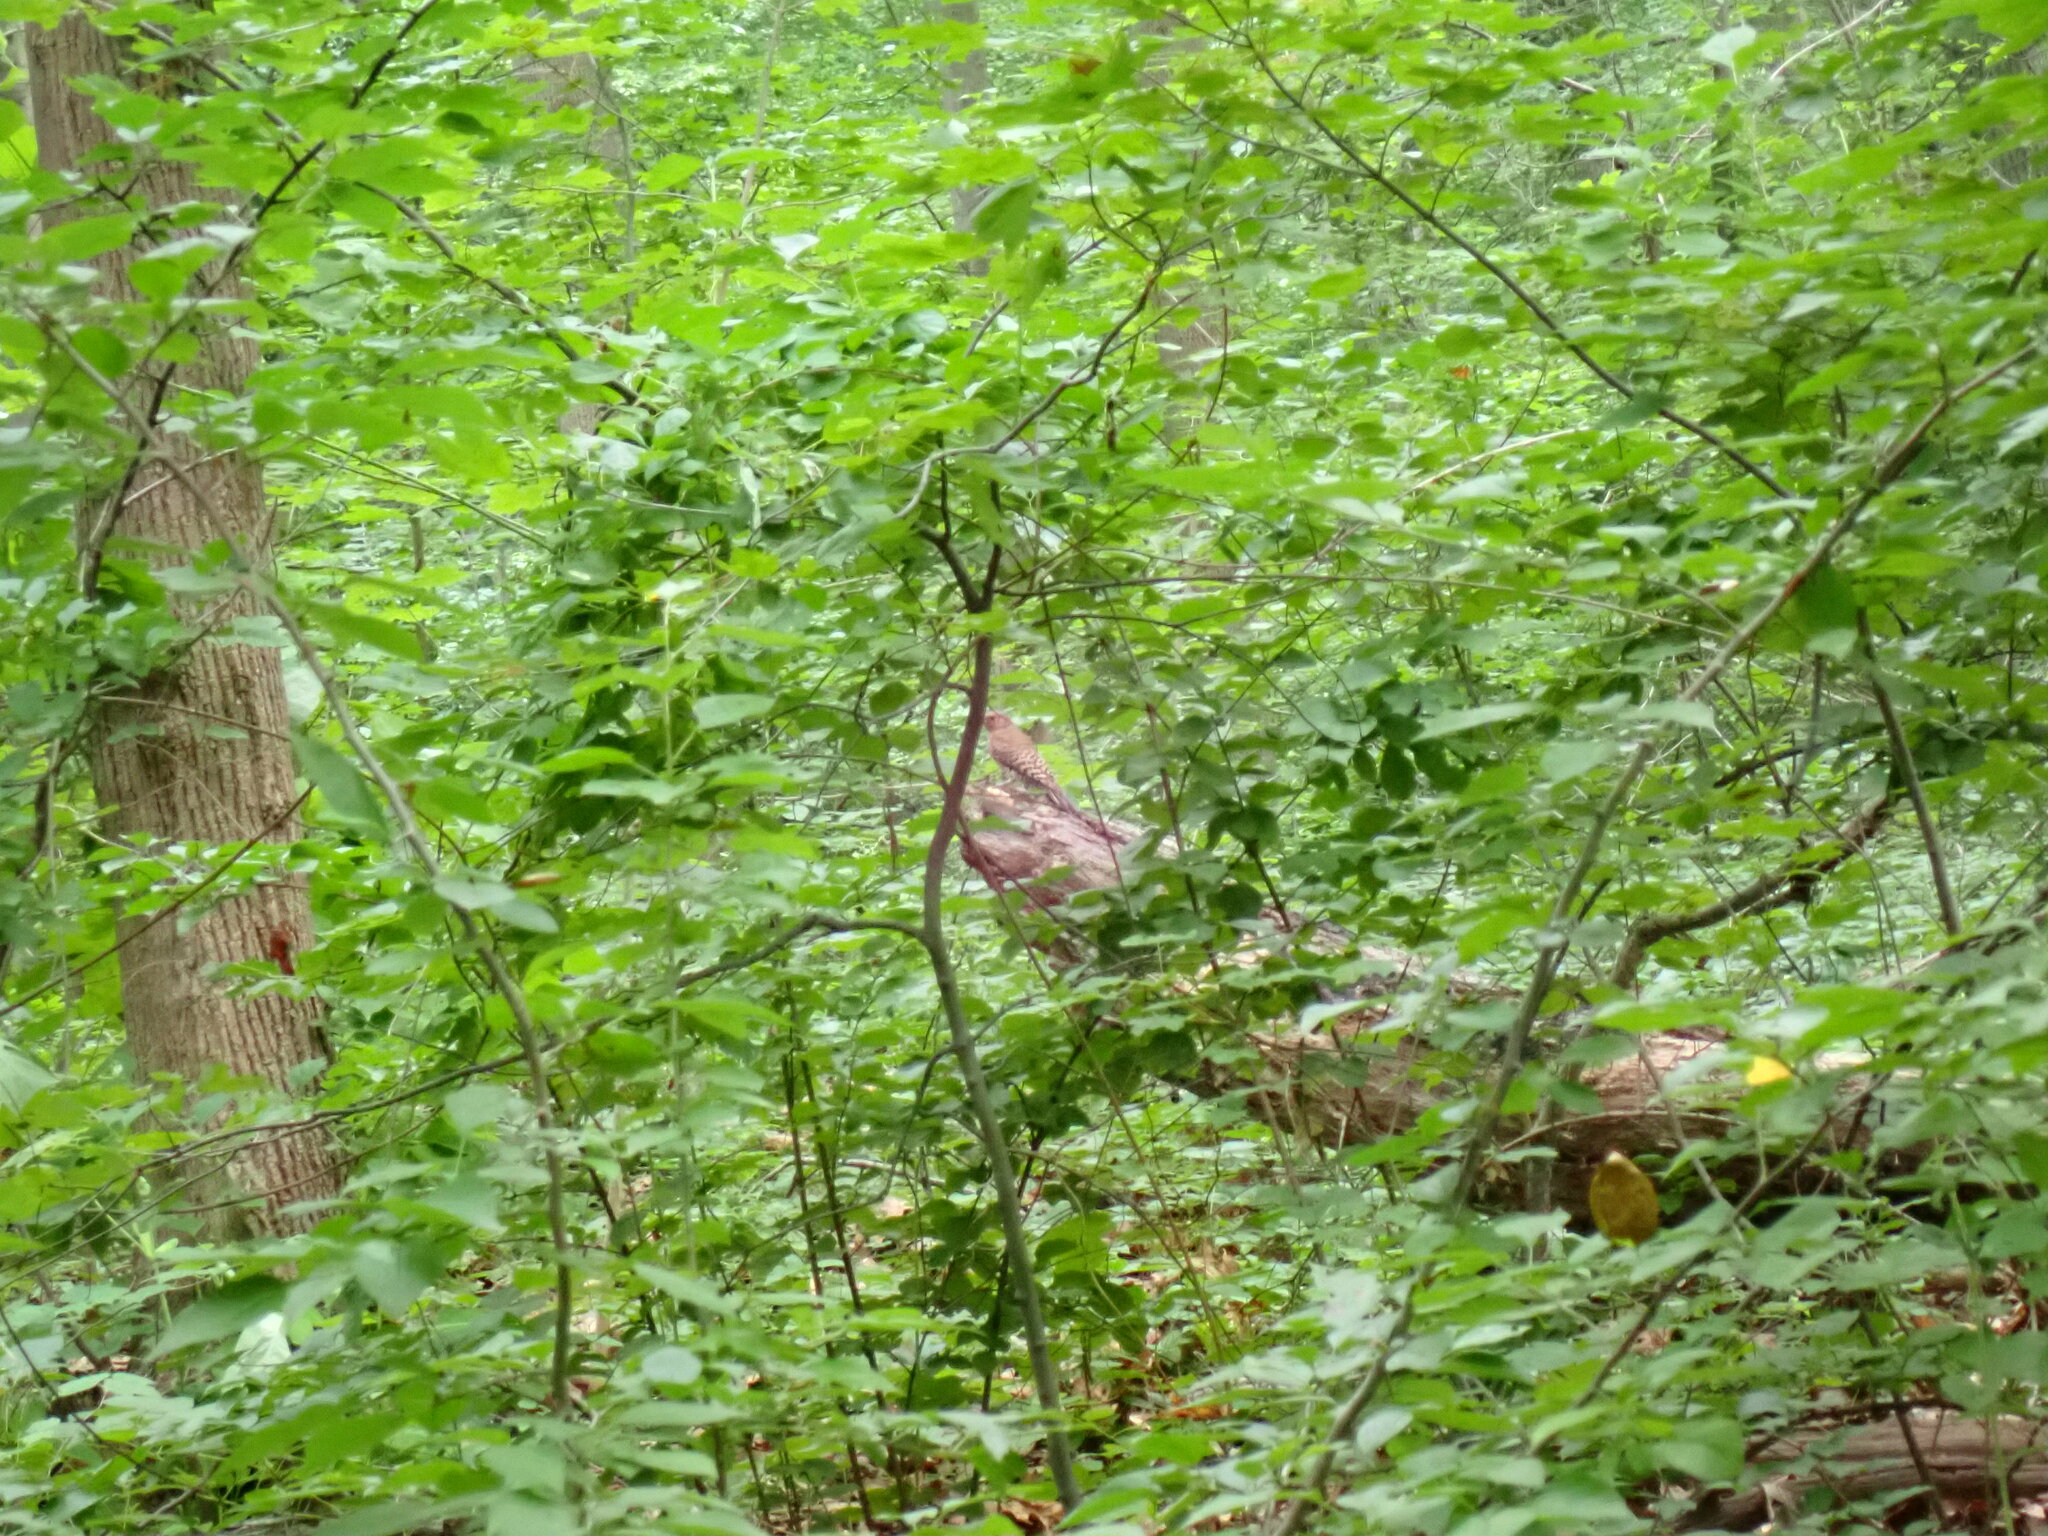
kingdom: Animalia
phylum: Chordata
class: Aves
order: Piciformes
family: Picidae
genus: Colaptes
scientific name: Colaptes auratus
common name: Northern flicker
